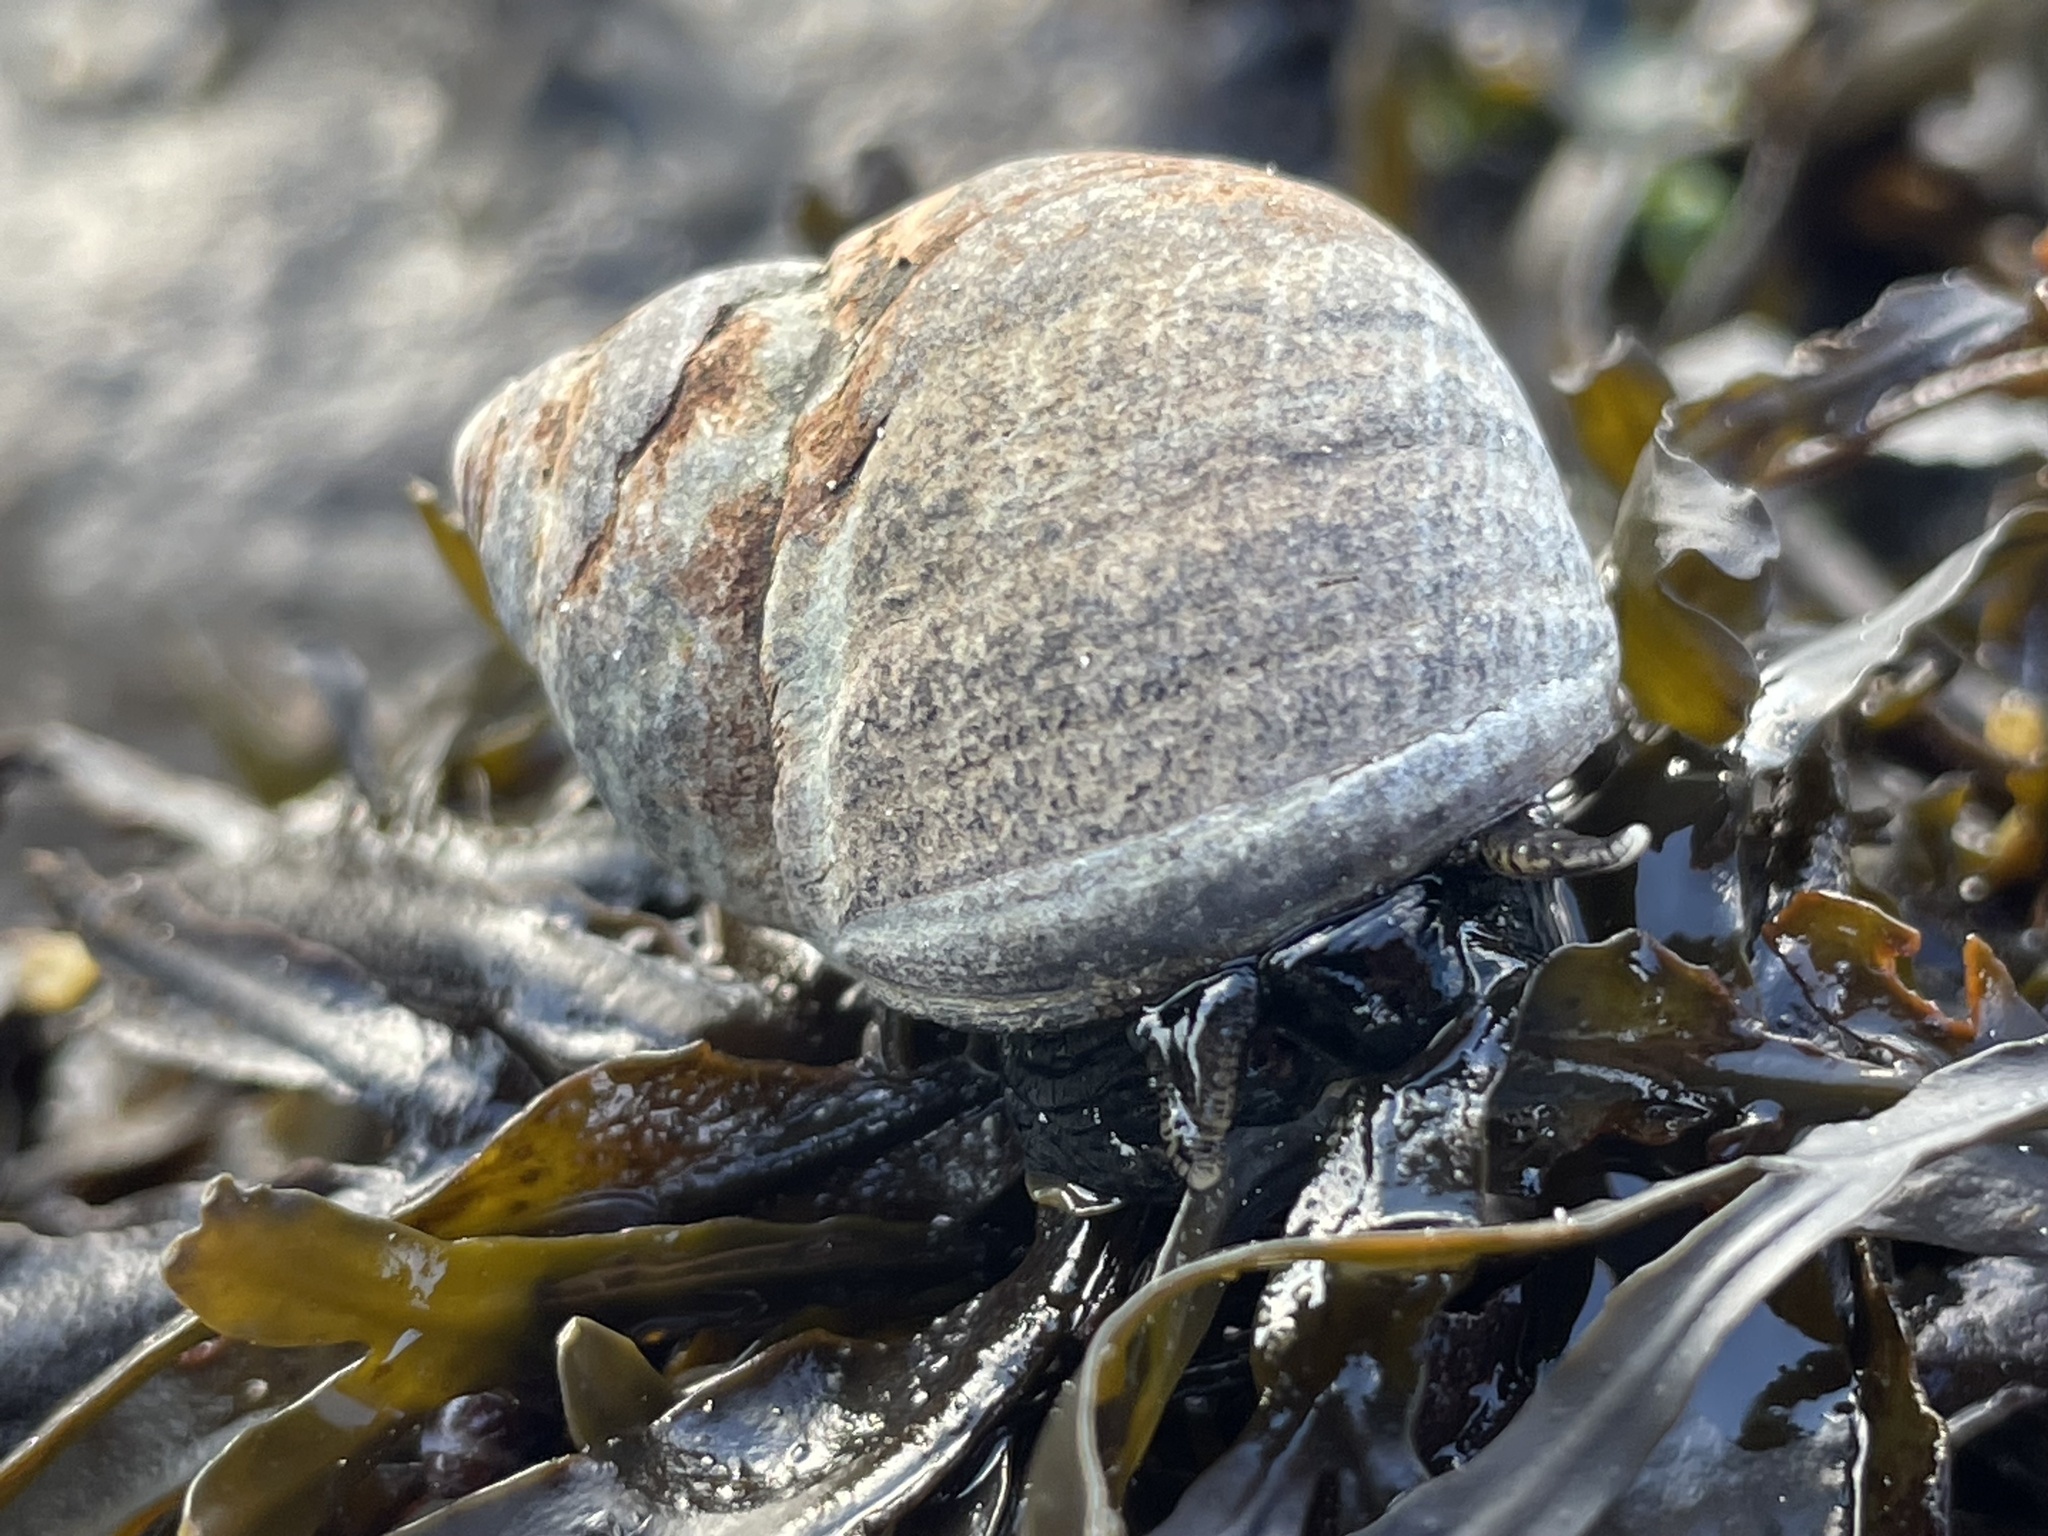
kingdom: Animalia
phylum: Mollusca
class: Gastropoda
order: Littorinimorpha
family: Littorinidae
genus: Littorina
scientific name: Littorina littorea
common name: Common periwinkle
